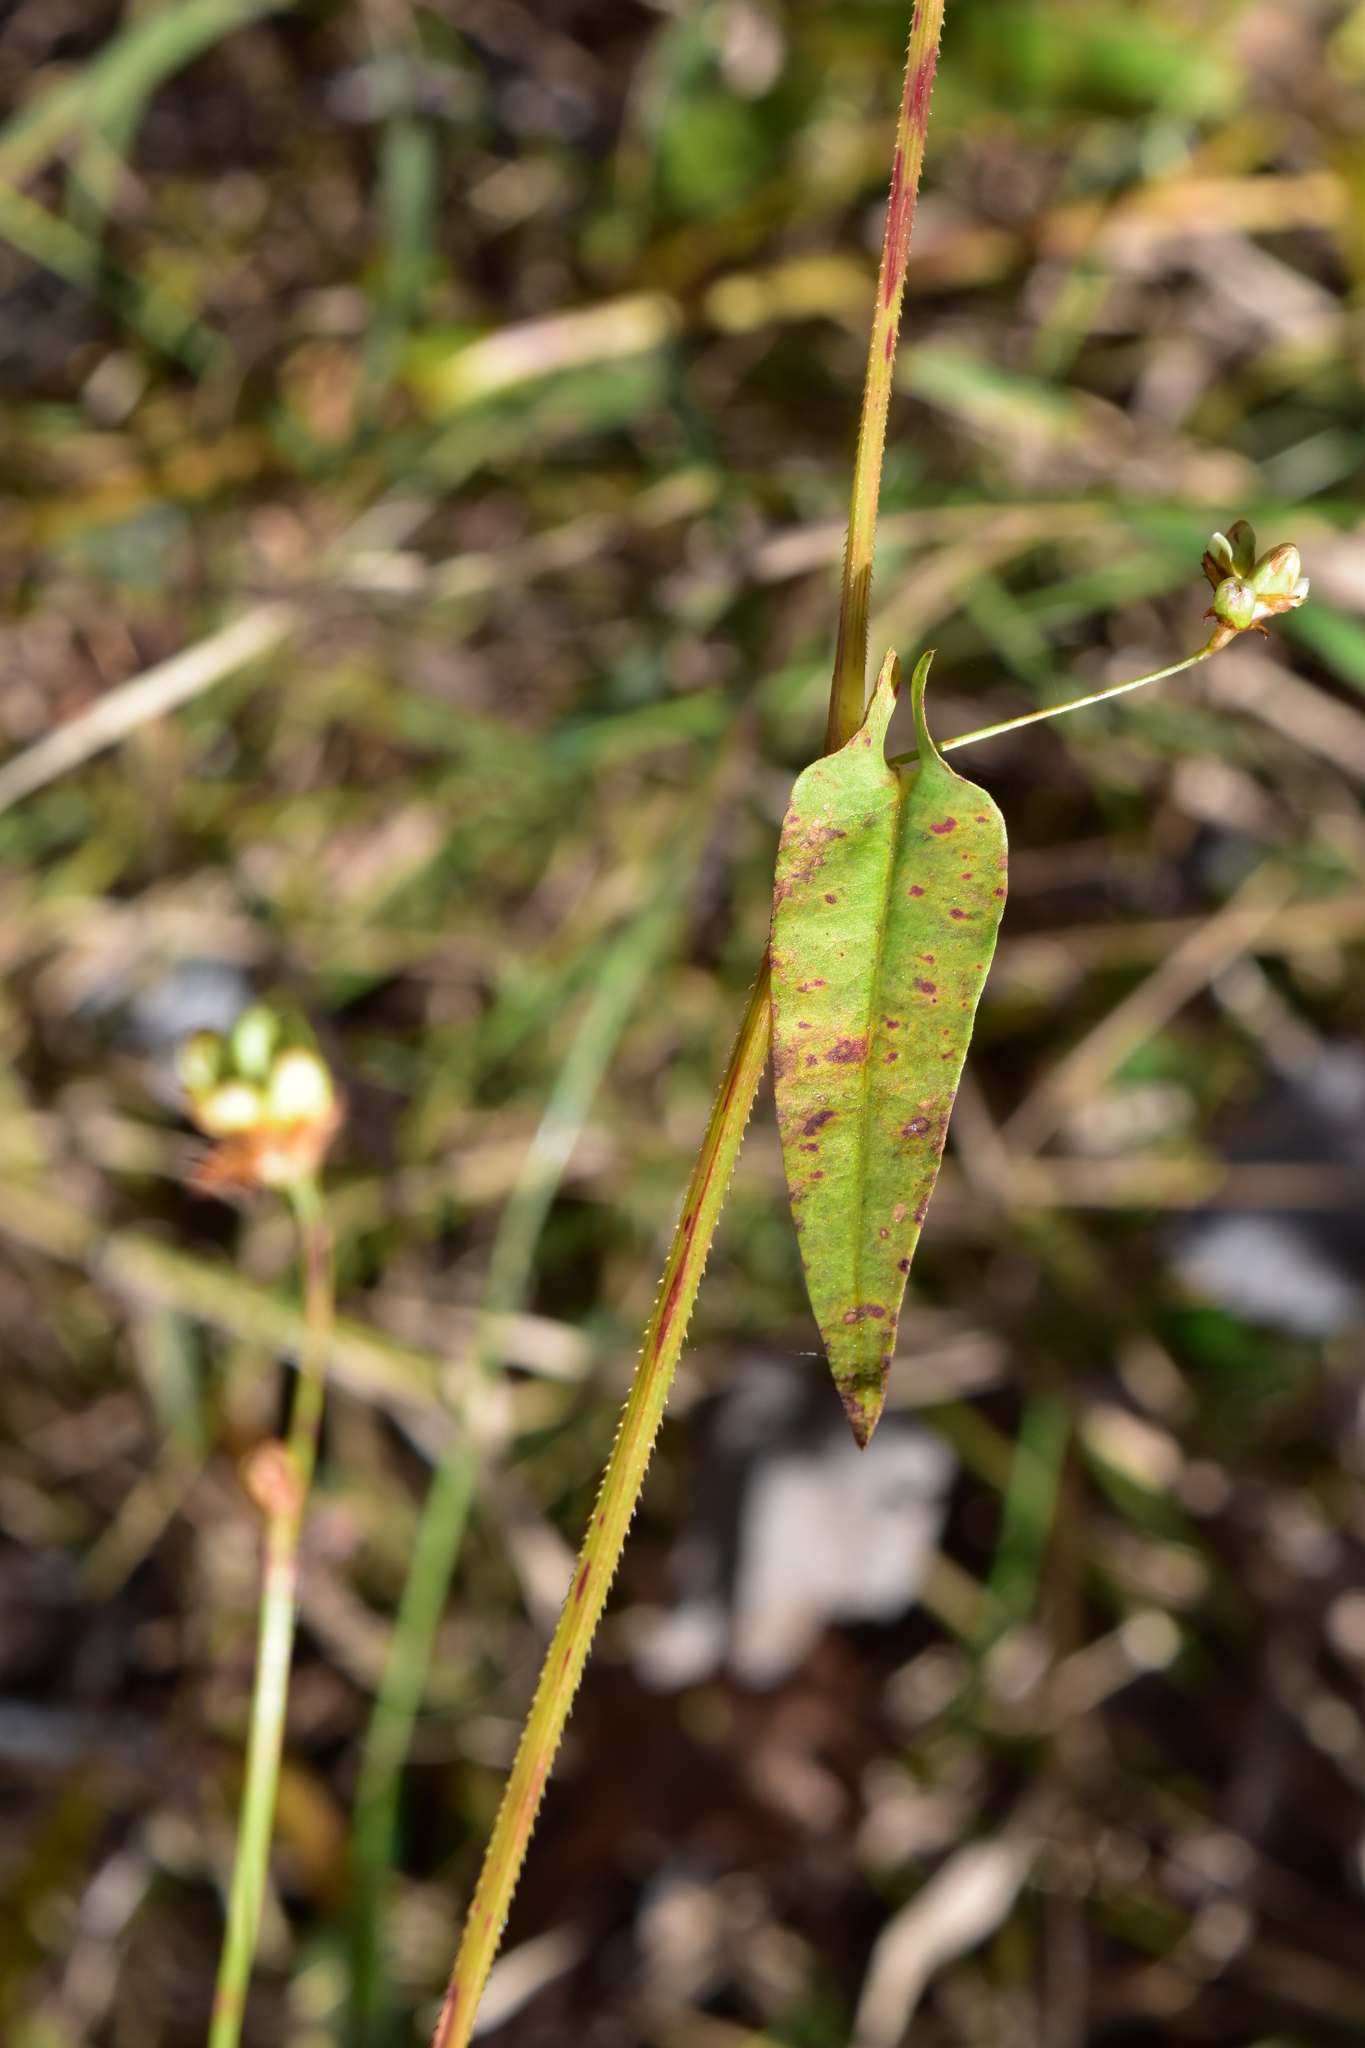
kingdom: Plantae
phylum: Tracheophyta
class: Magnoliopsida
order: Caryophyllales
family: Polygonaceae
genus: Persicaria
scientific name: Persicaria sagittata
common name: American tearthumb
